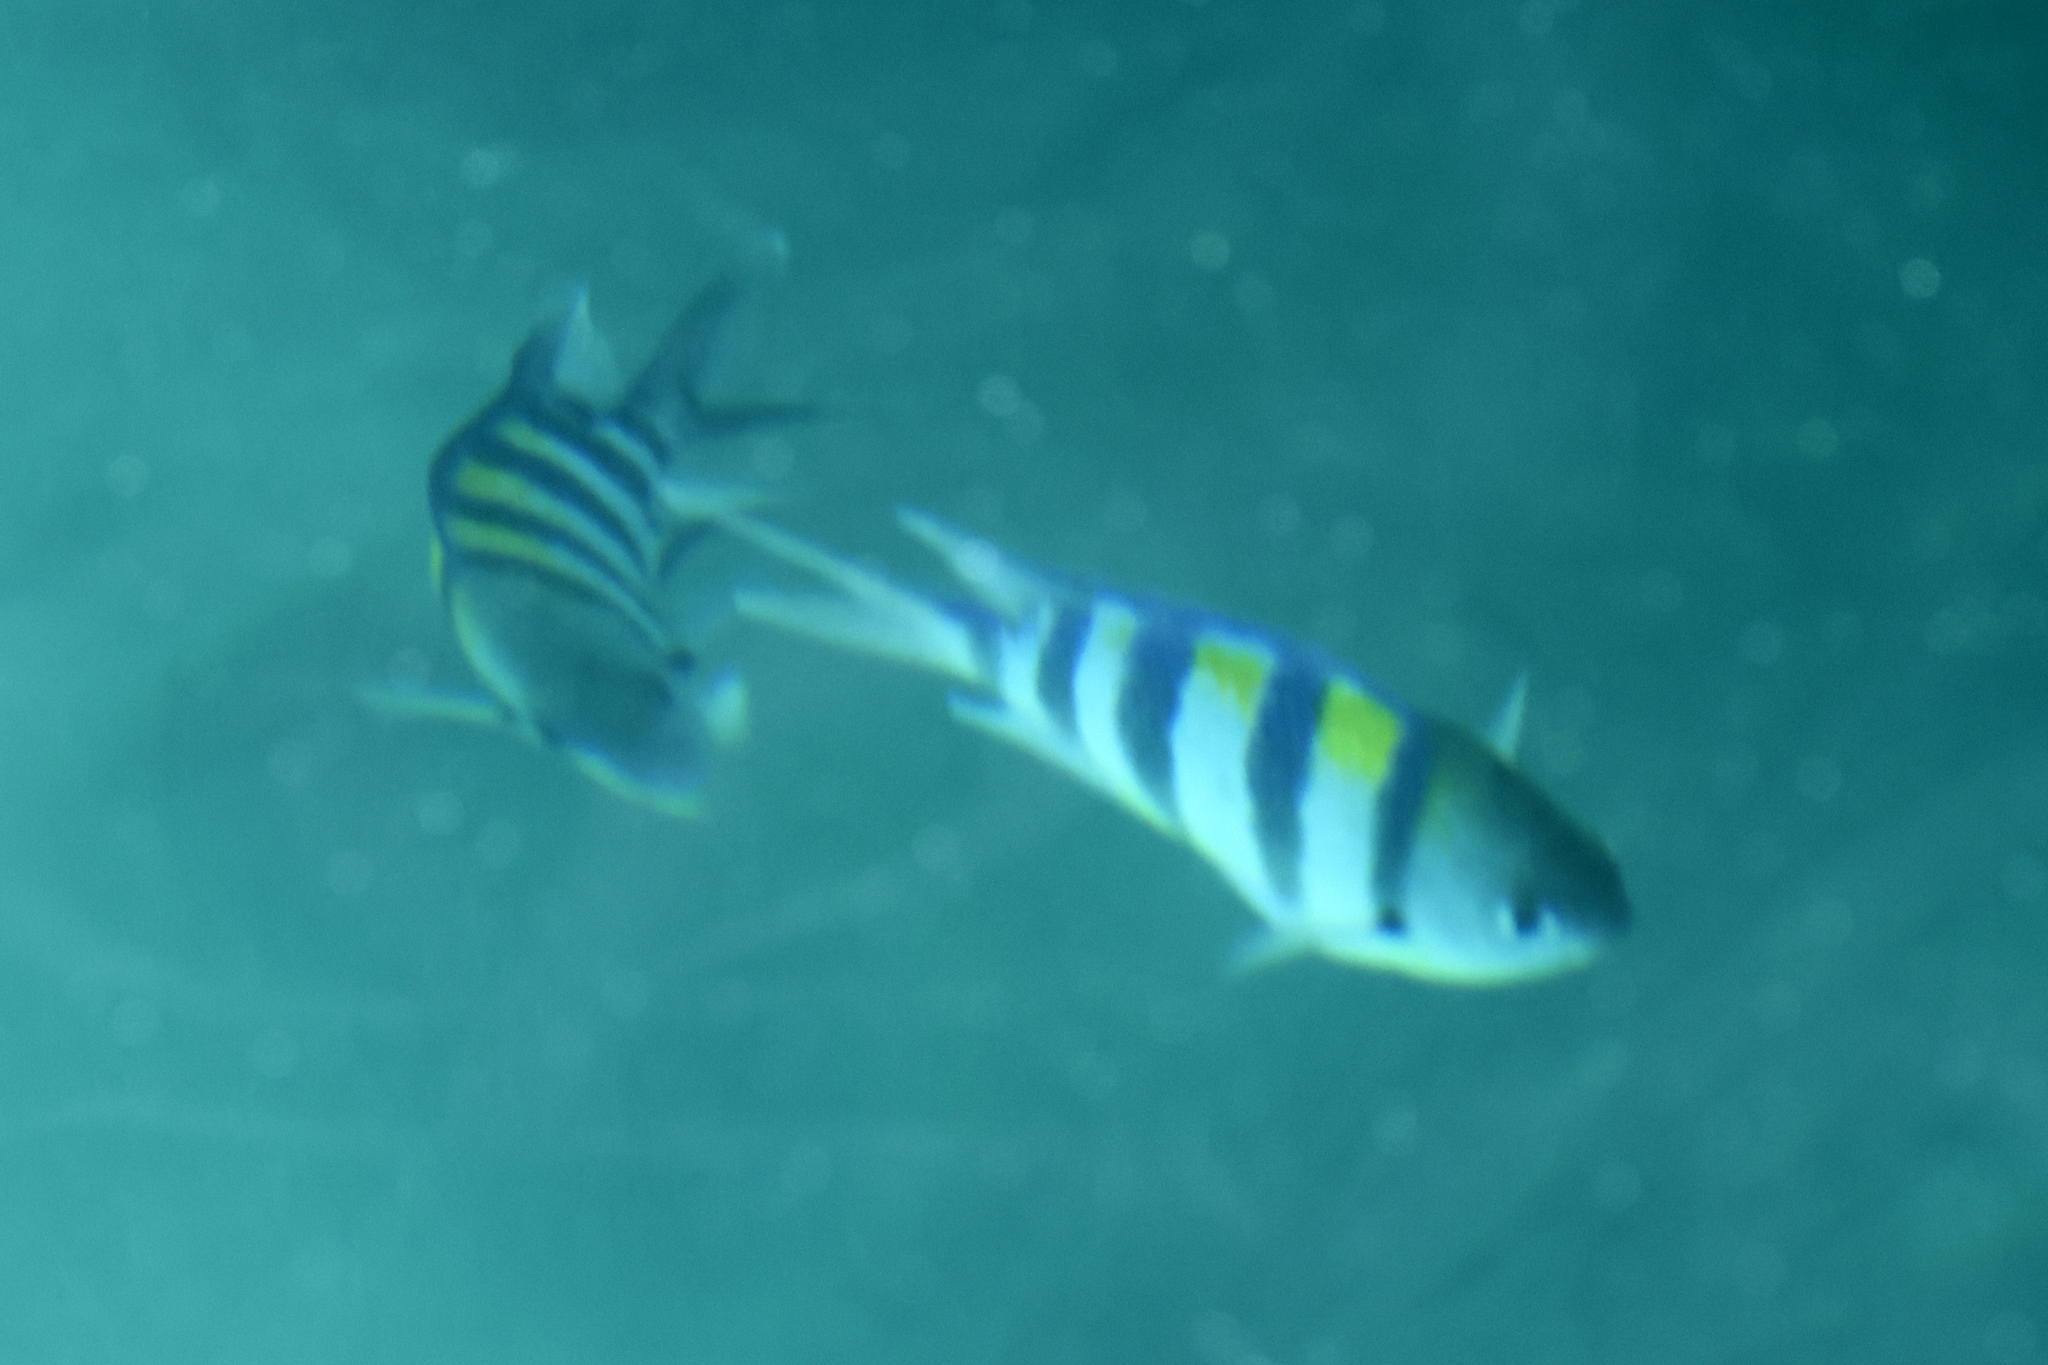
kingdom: Animalia
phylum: Chordata
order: Perciformes
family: Pomacentridae
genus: Abudefduf
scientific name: Abudefduf vaigiensis
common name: Indo-pacific sergeant
